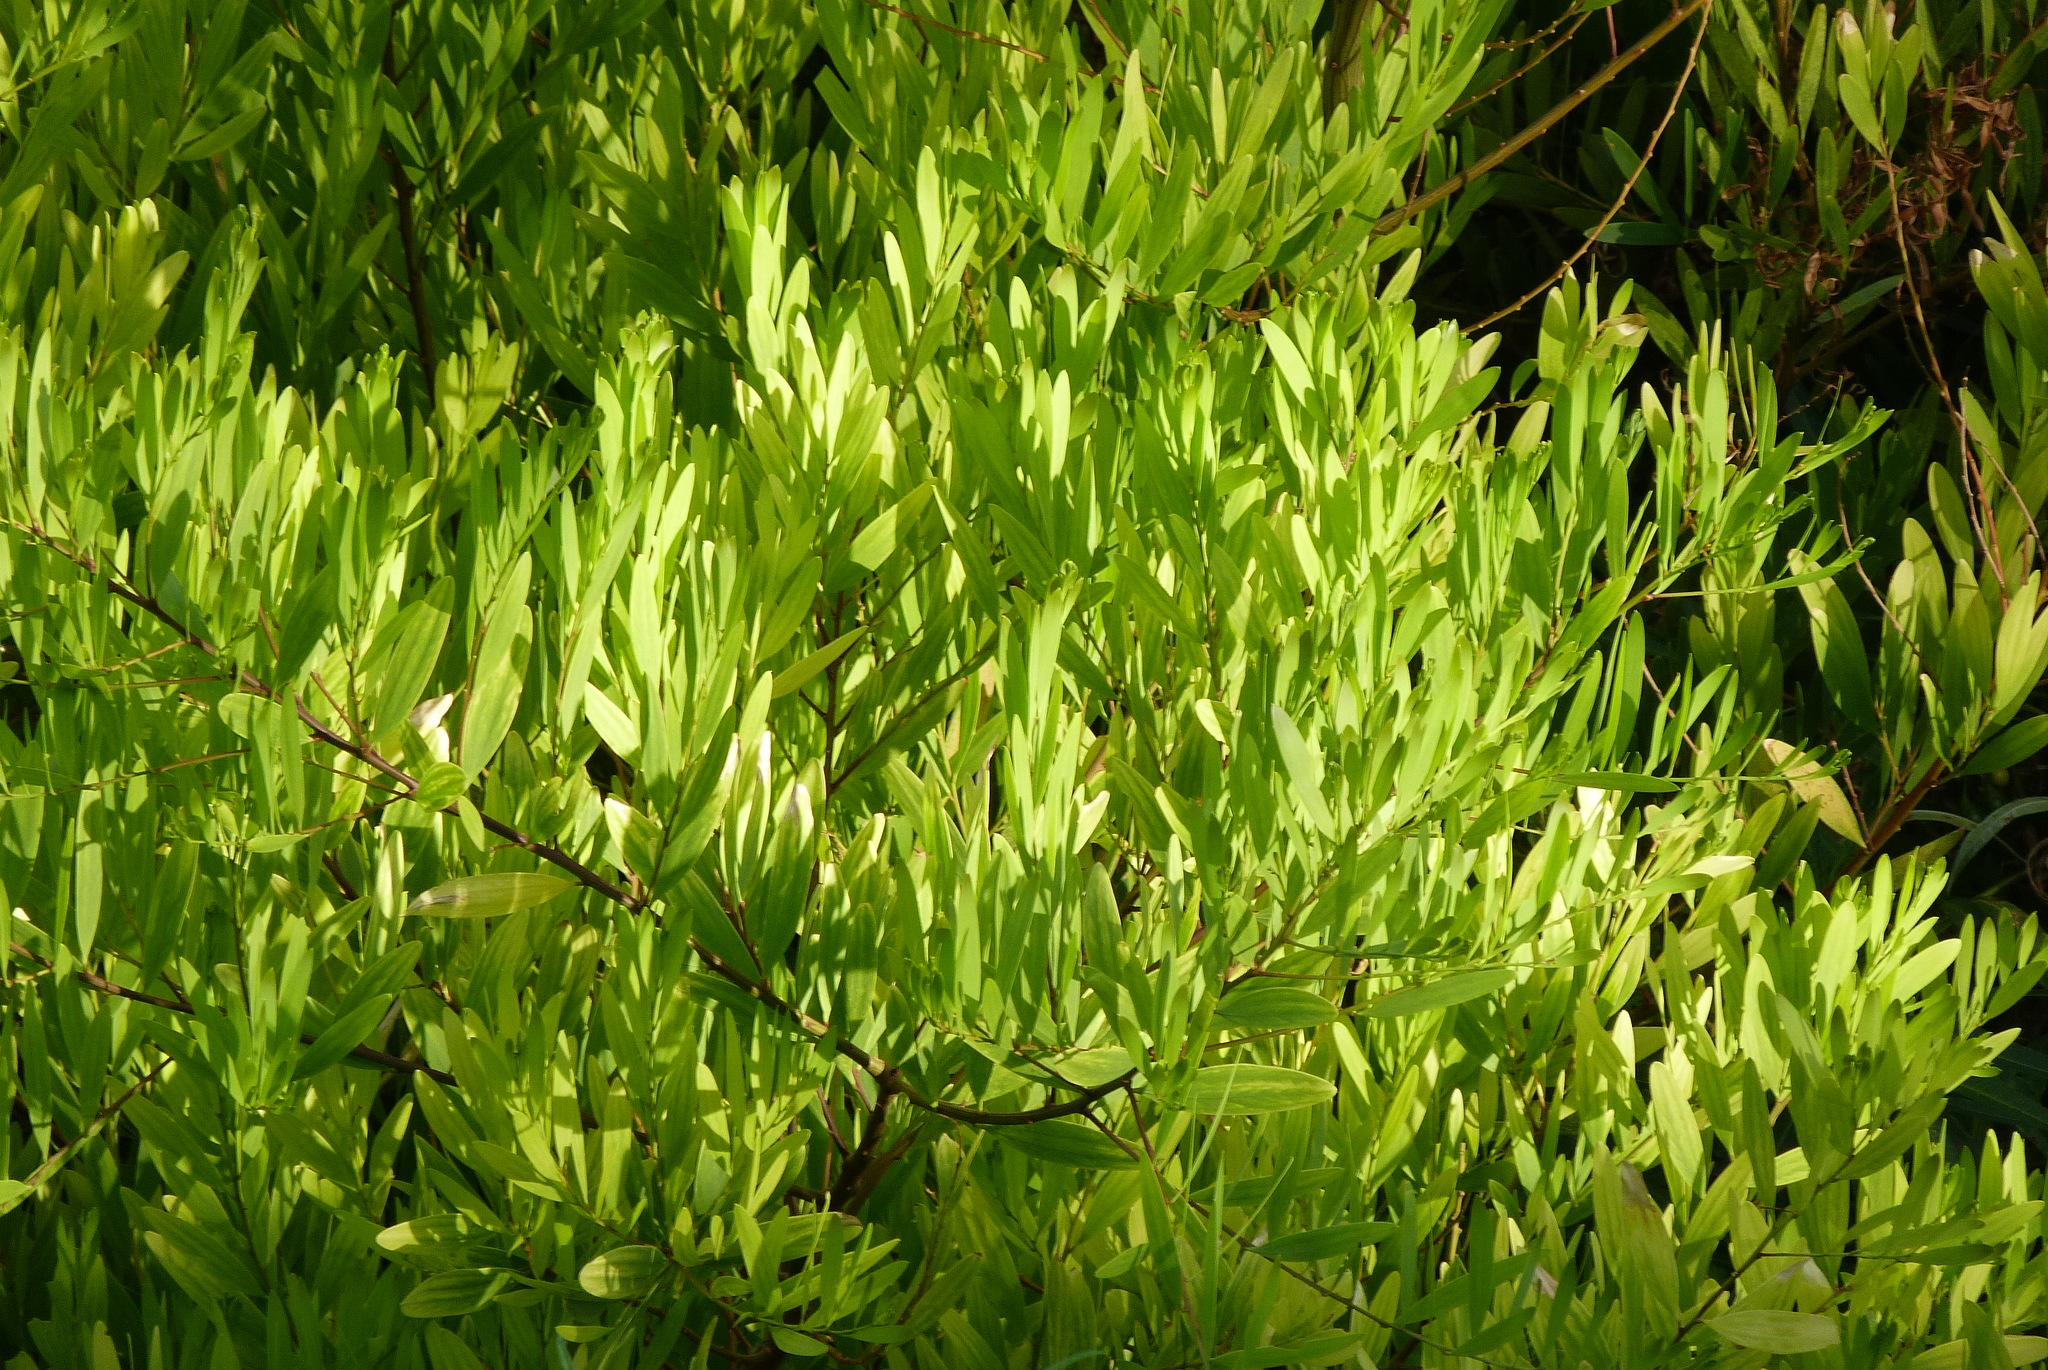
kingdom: Plantae
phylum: Tracheophyta
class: Magnoliopsida
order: Fabales
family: Fabaceae
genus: Acacia
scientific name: Acacia longifolia
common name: Sydney golden wattle
